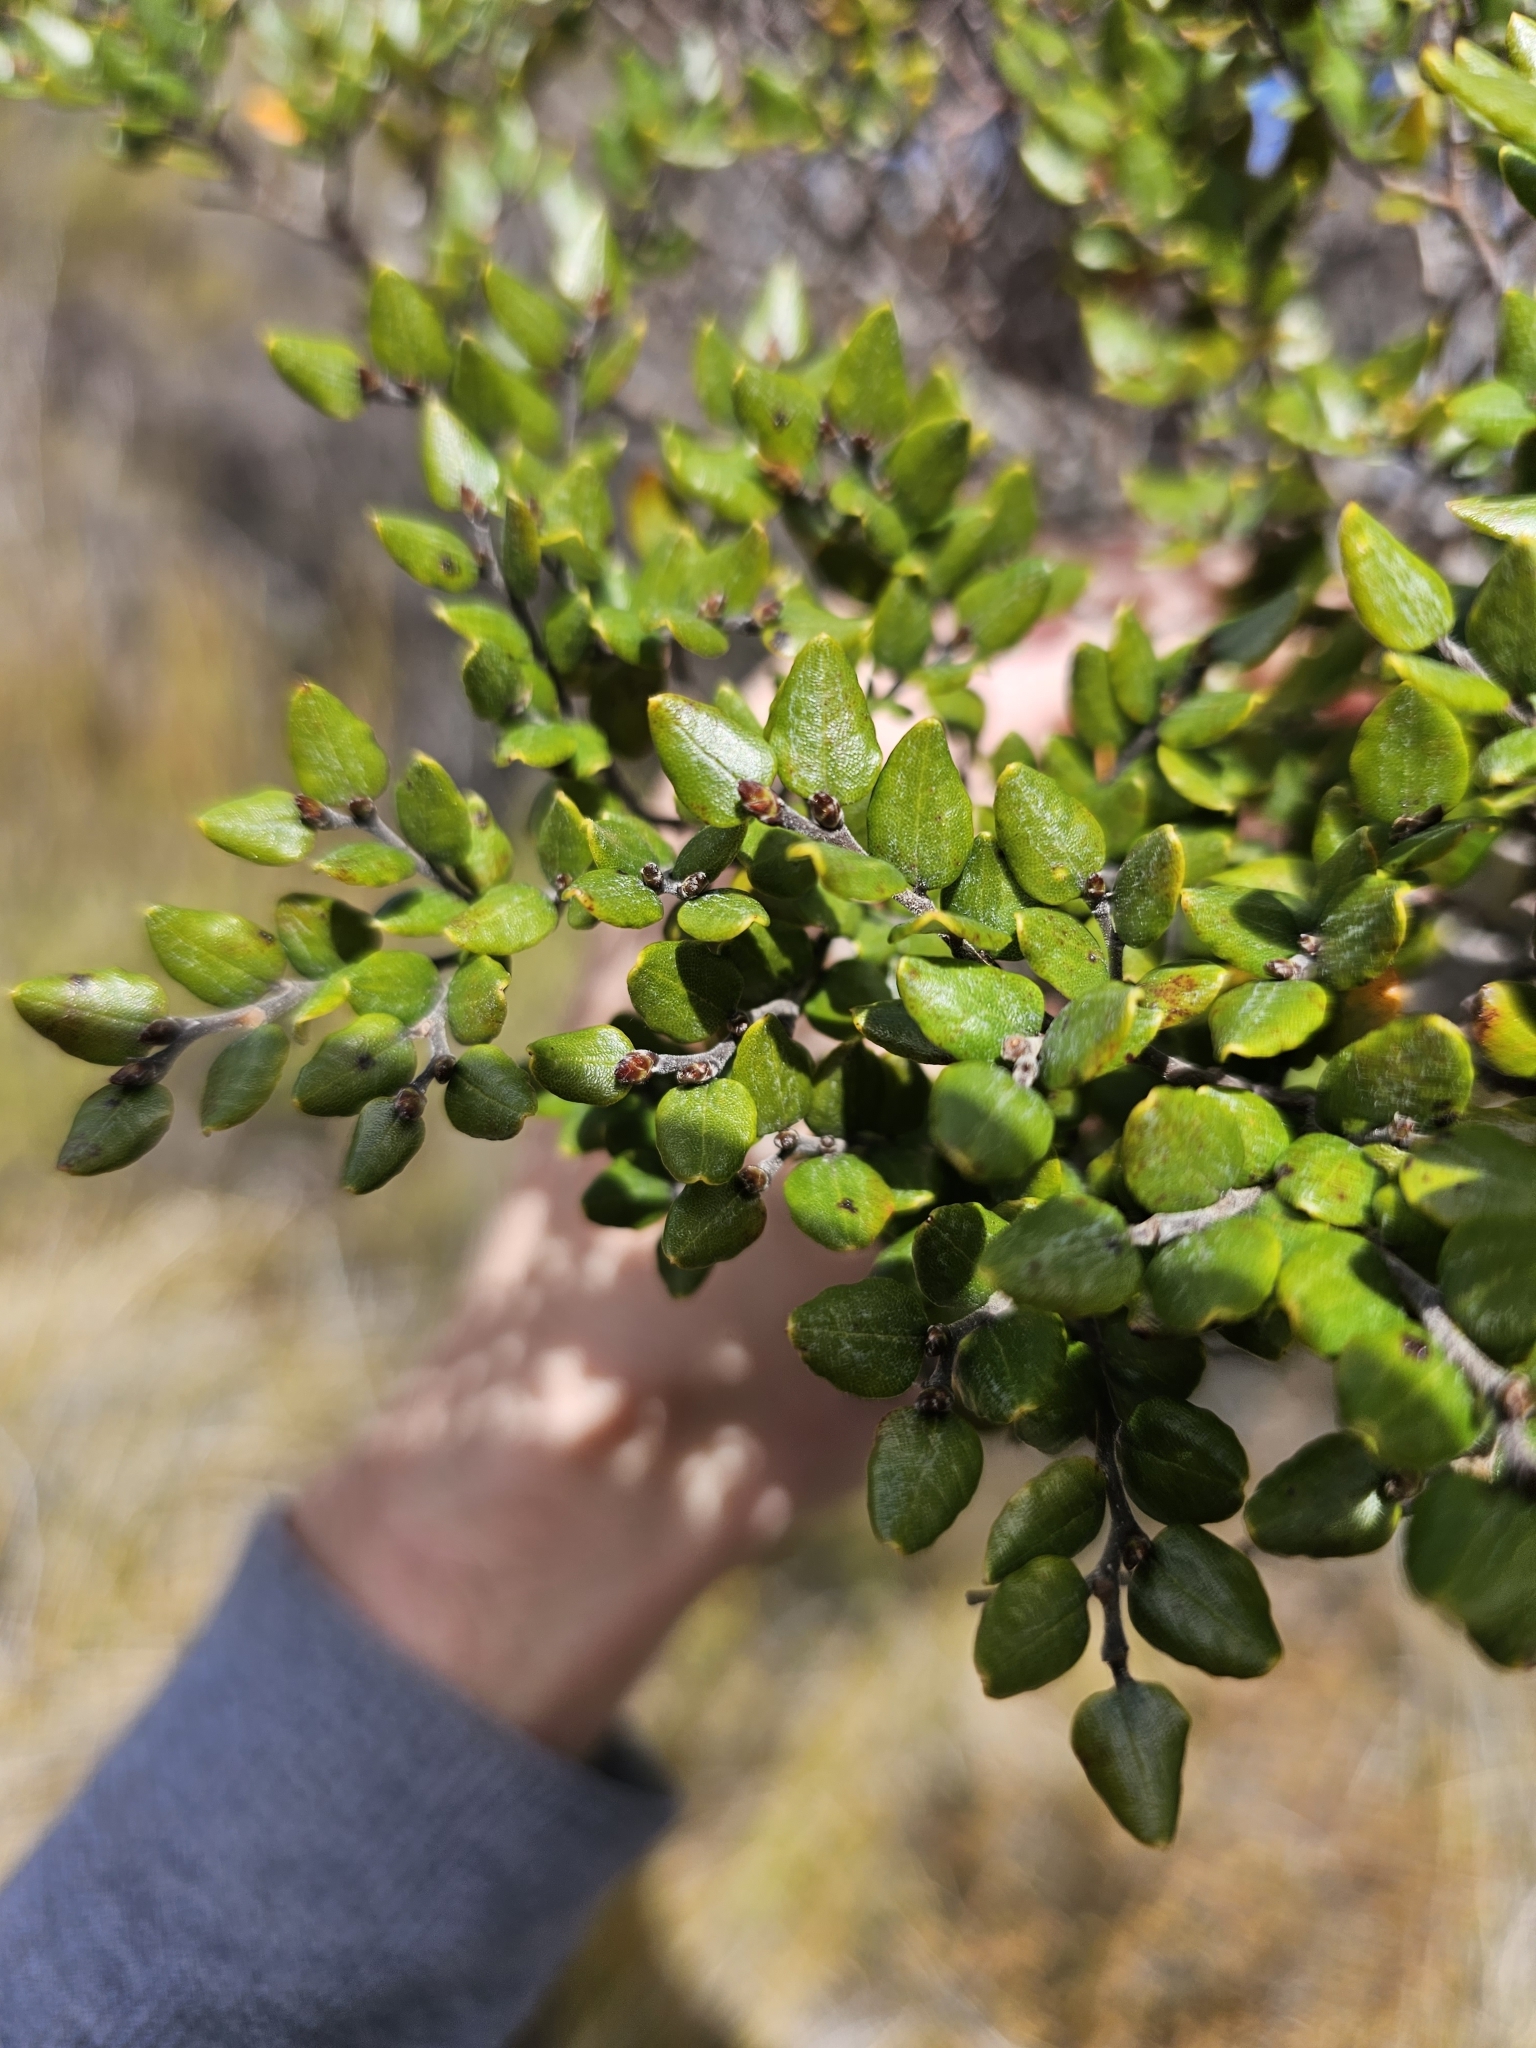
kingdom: Plantae
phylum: Tracheophyta
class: Magnoliopsida
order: Fagales
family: Nothofagaceae
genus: Nothofagus
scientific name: Nothofagus cliffortioides
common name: Mountain beech
